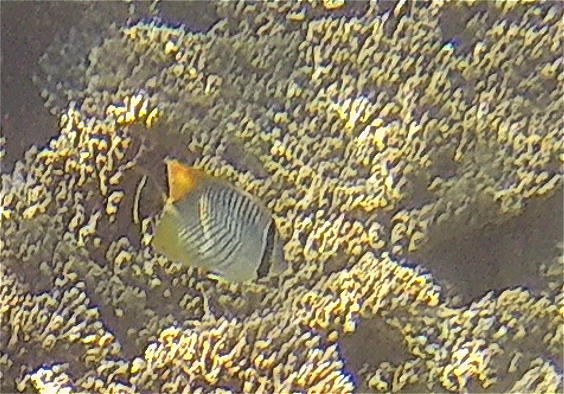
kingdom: Animalia
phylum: Chordata
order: Perciformes
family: Chaetodontidae
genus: Chaetodon
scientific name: Chaetodon trifascialis
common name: Chevroned butterflyfish
